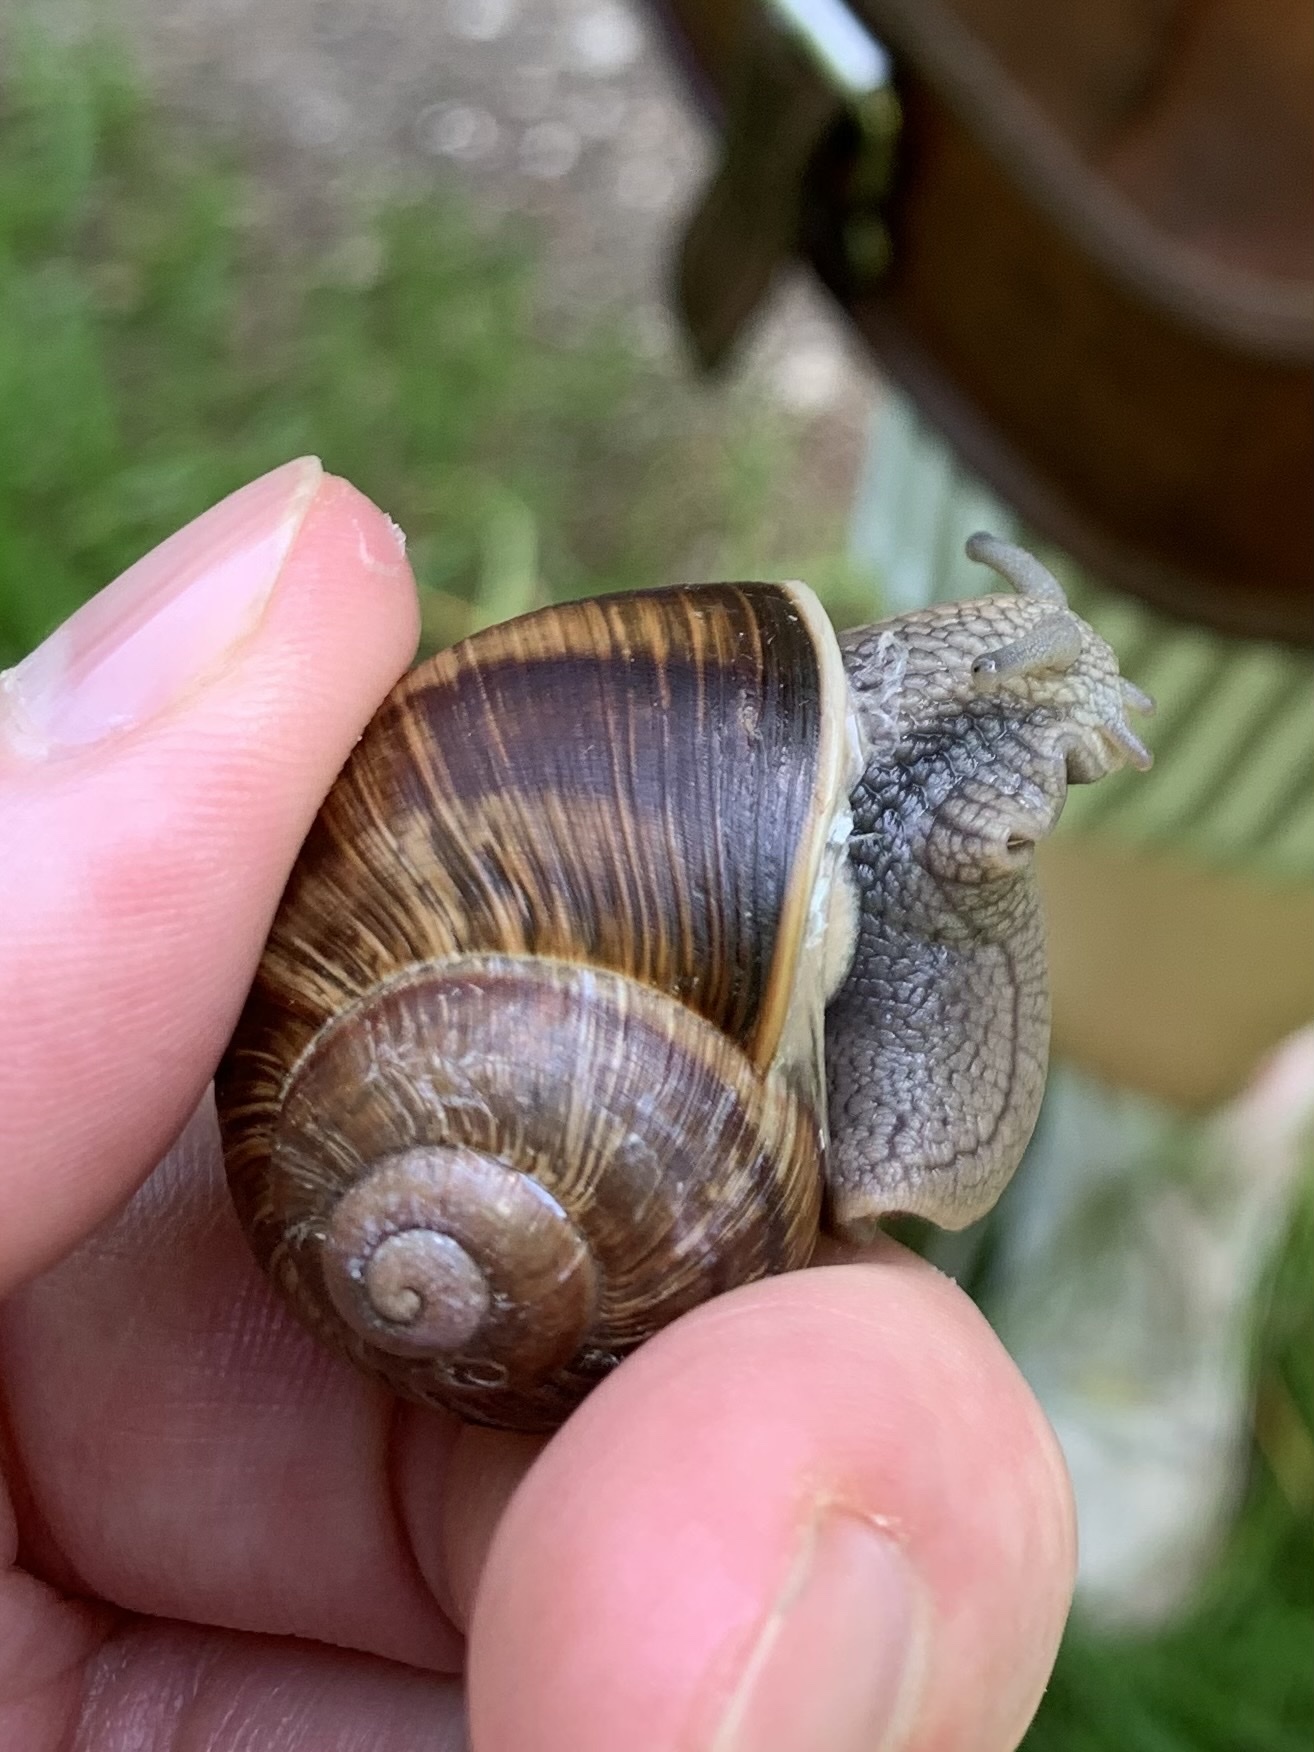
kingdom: Animalia
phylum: Mollusca
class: Gastropoda
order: Stylommatophora
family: Helicidae
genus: Helix
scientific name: Helix pomatia
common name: Roman snail
